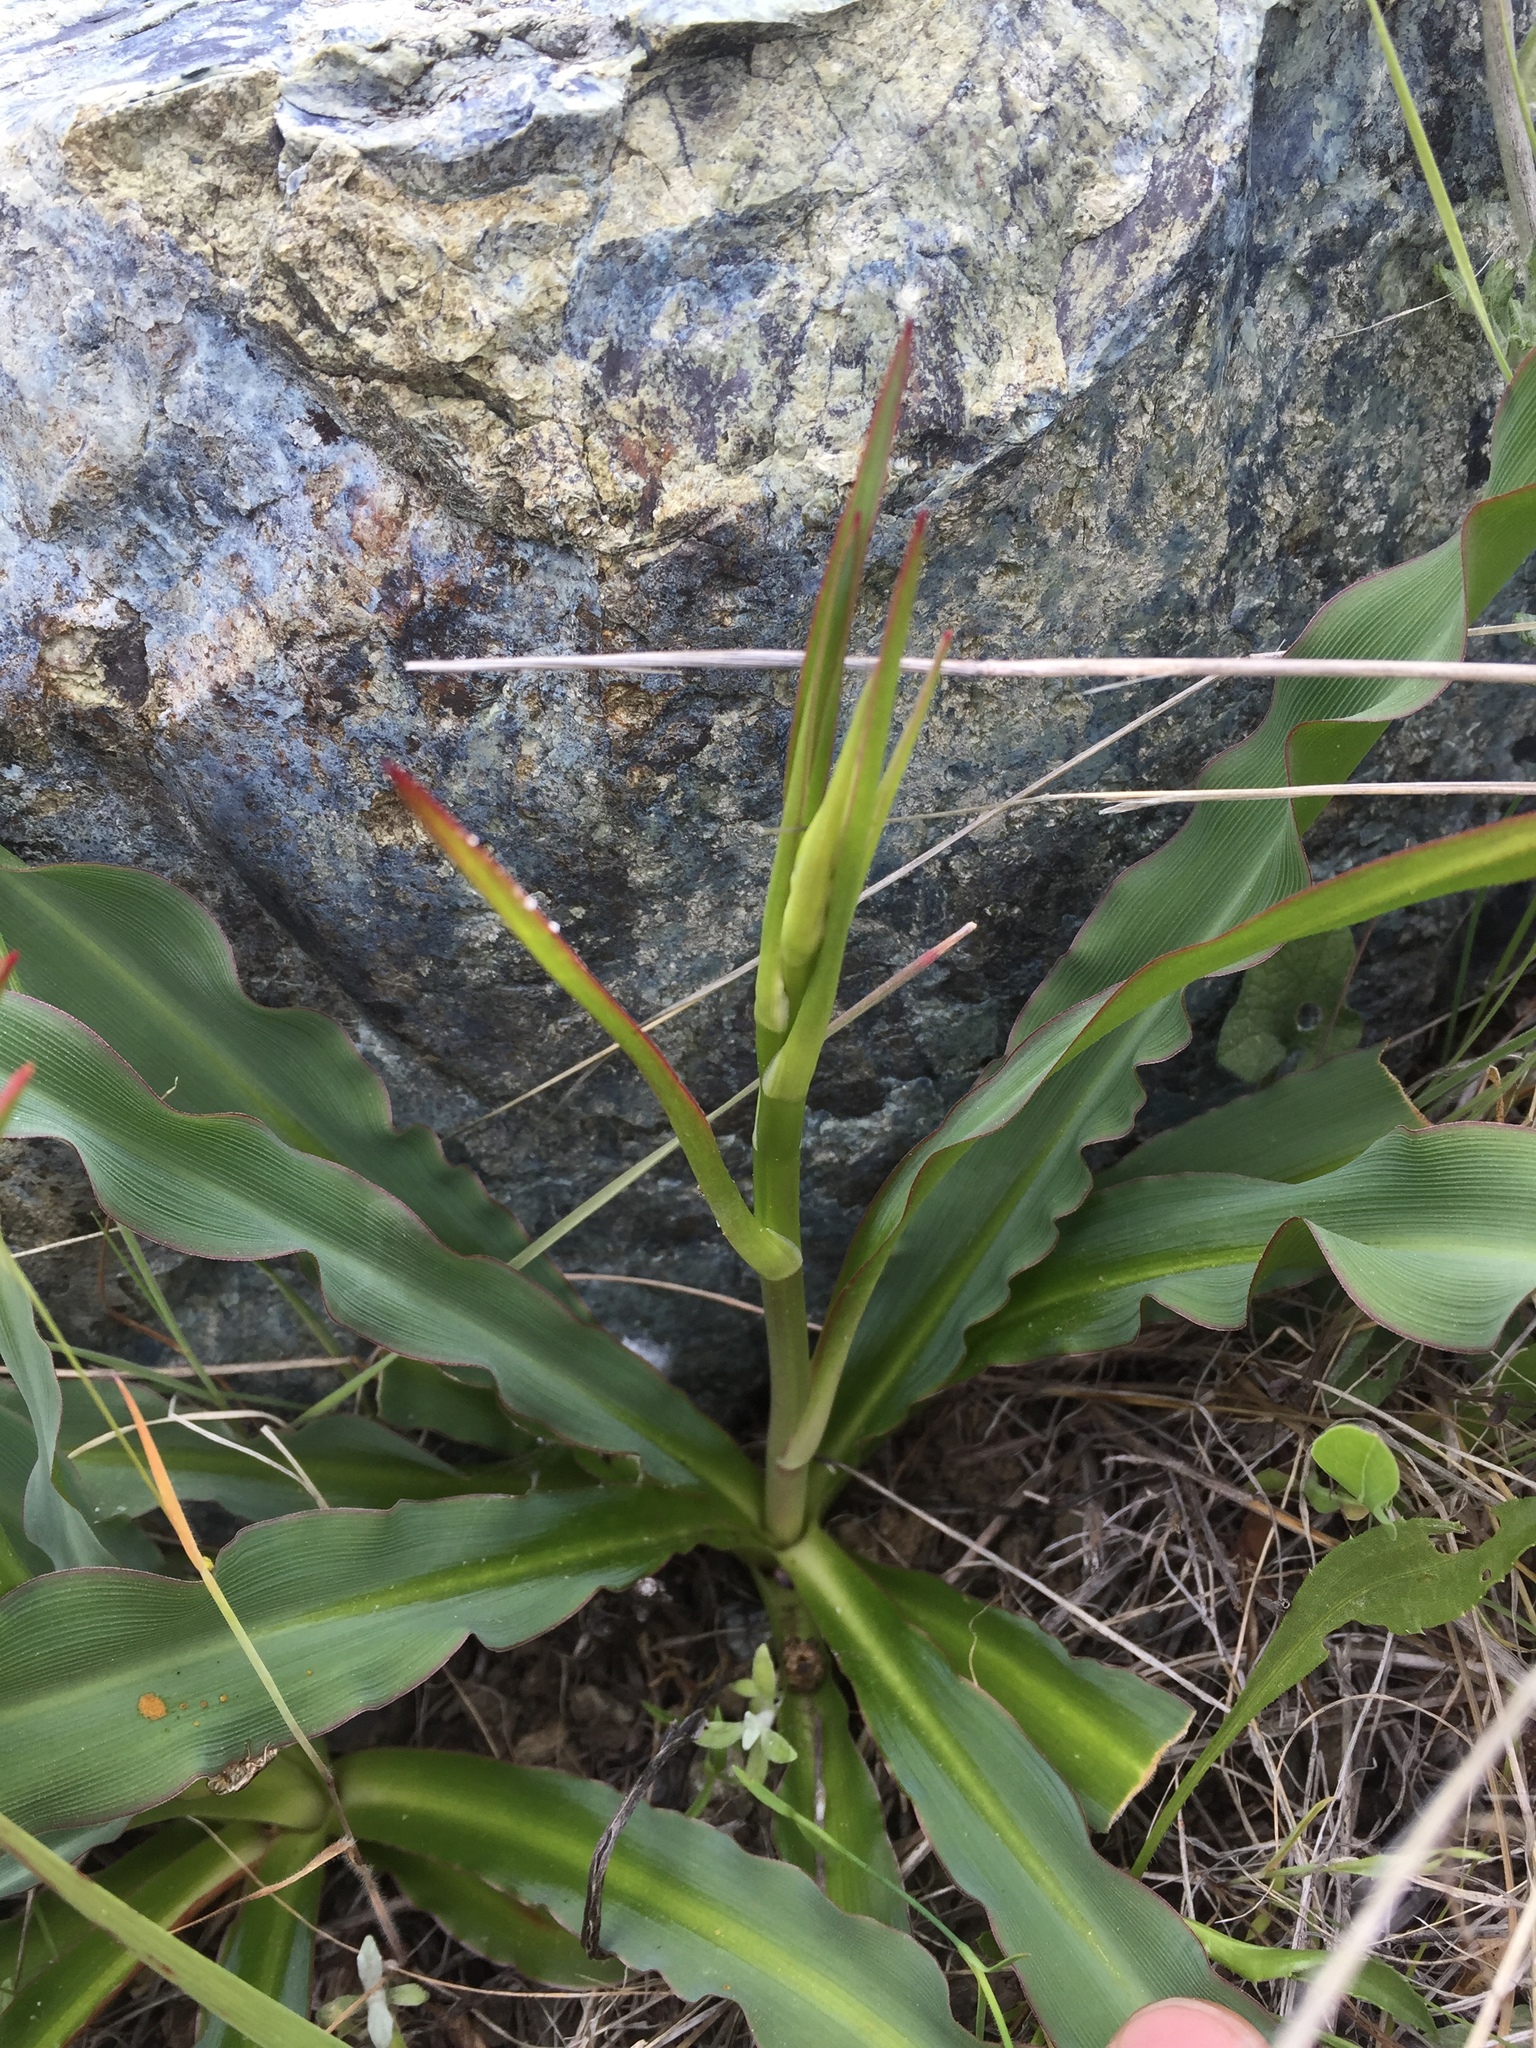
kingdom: Plantae
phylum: Tracheophyta
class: Liliopsida
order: Asparagales
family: Asparagaceae
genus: Chlorogalum
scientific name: Chlorogalum pomeridianum
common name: Amole
